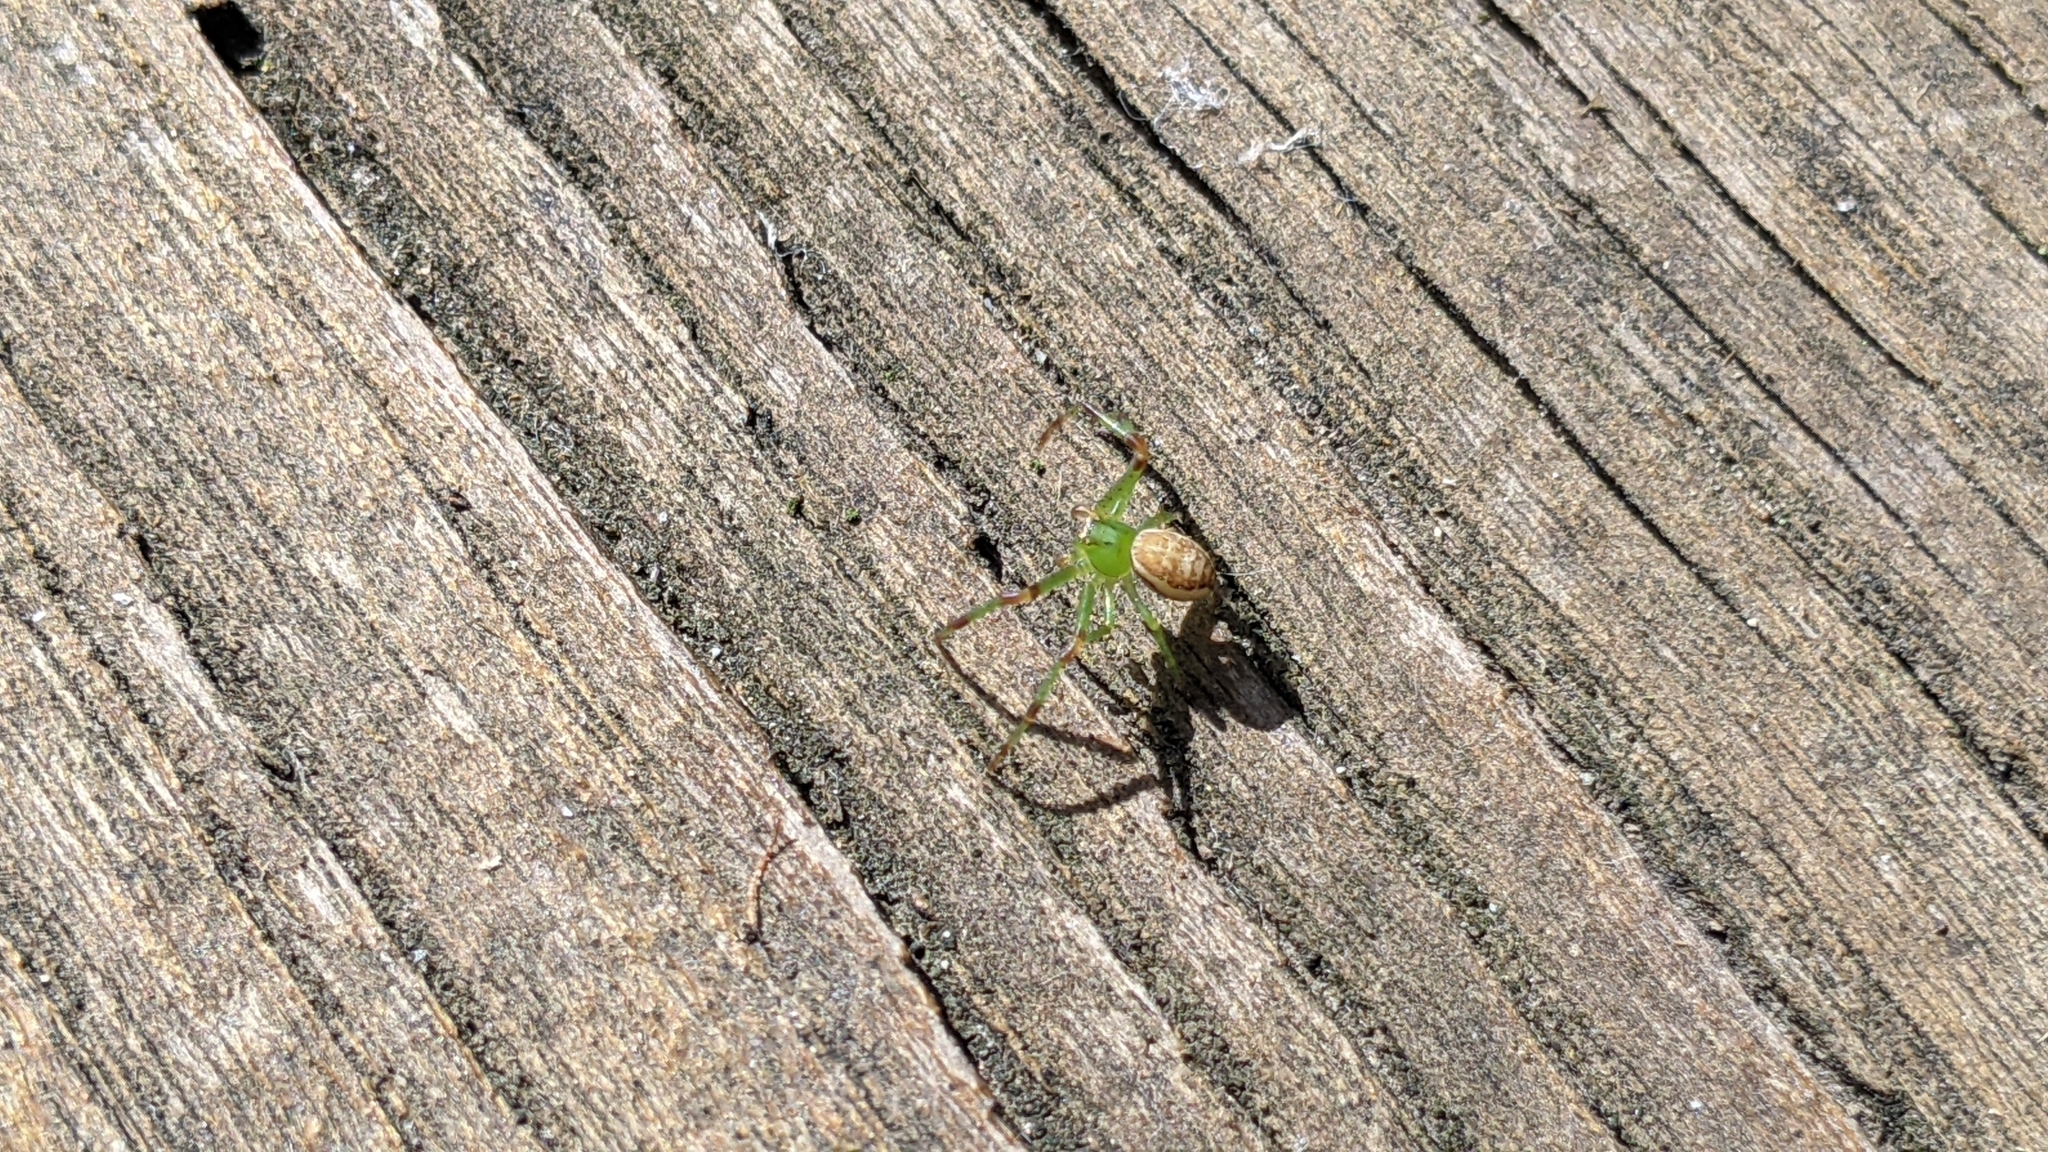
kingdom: Animalia
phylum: Arthropoda
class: Arachnida
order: Araneae
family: Thomisidae
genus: Diaea
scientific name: Diaea dorsata
